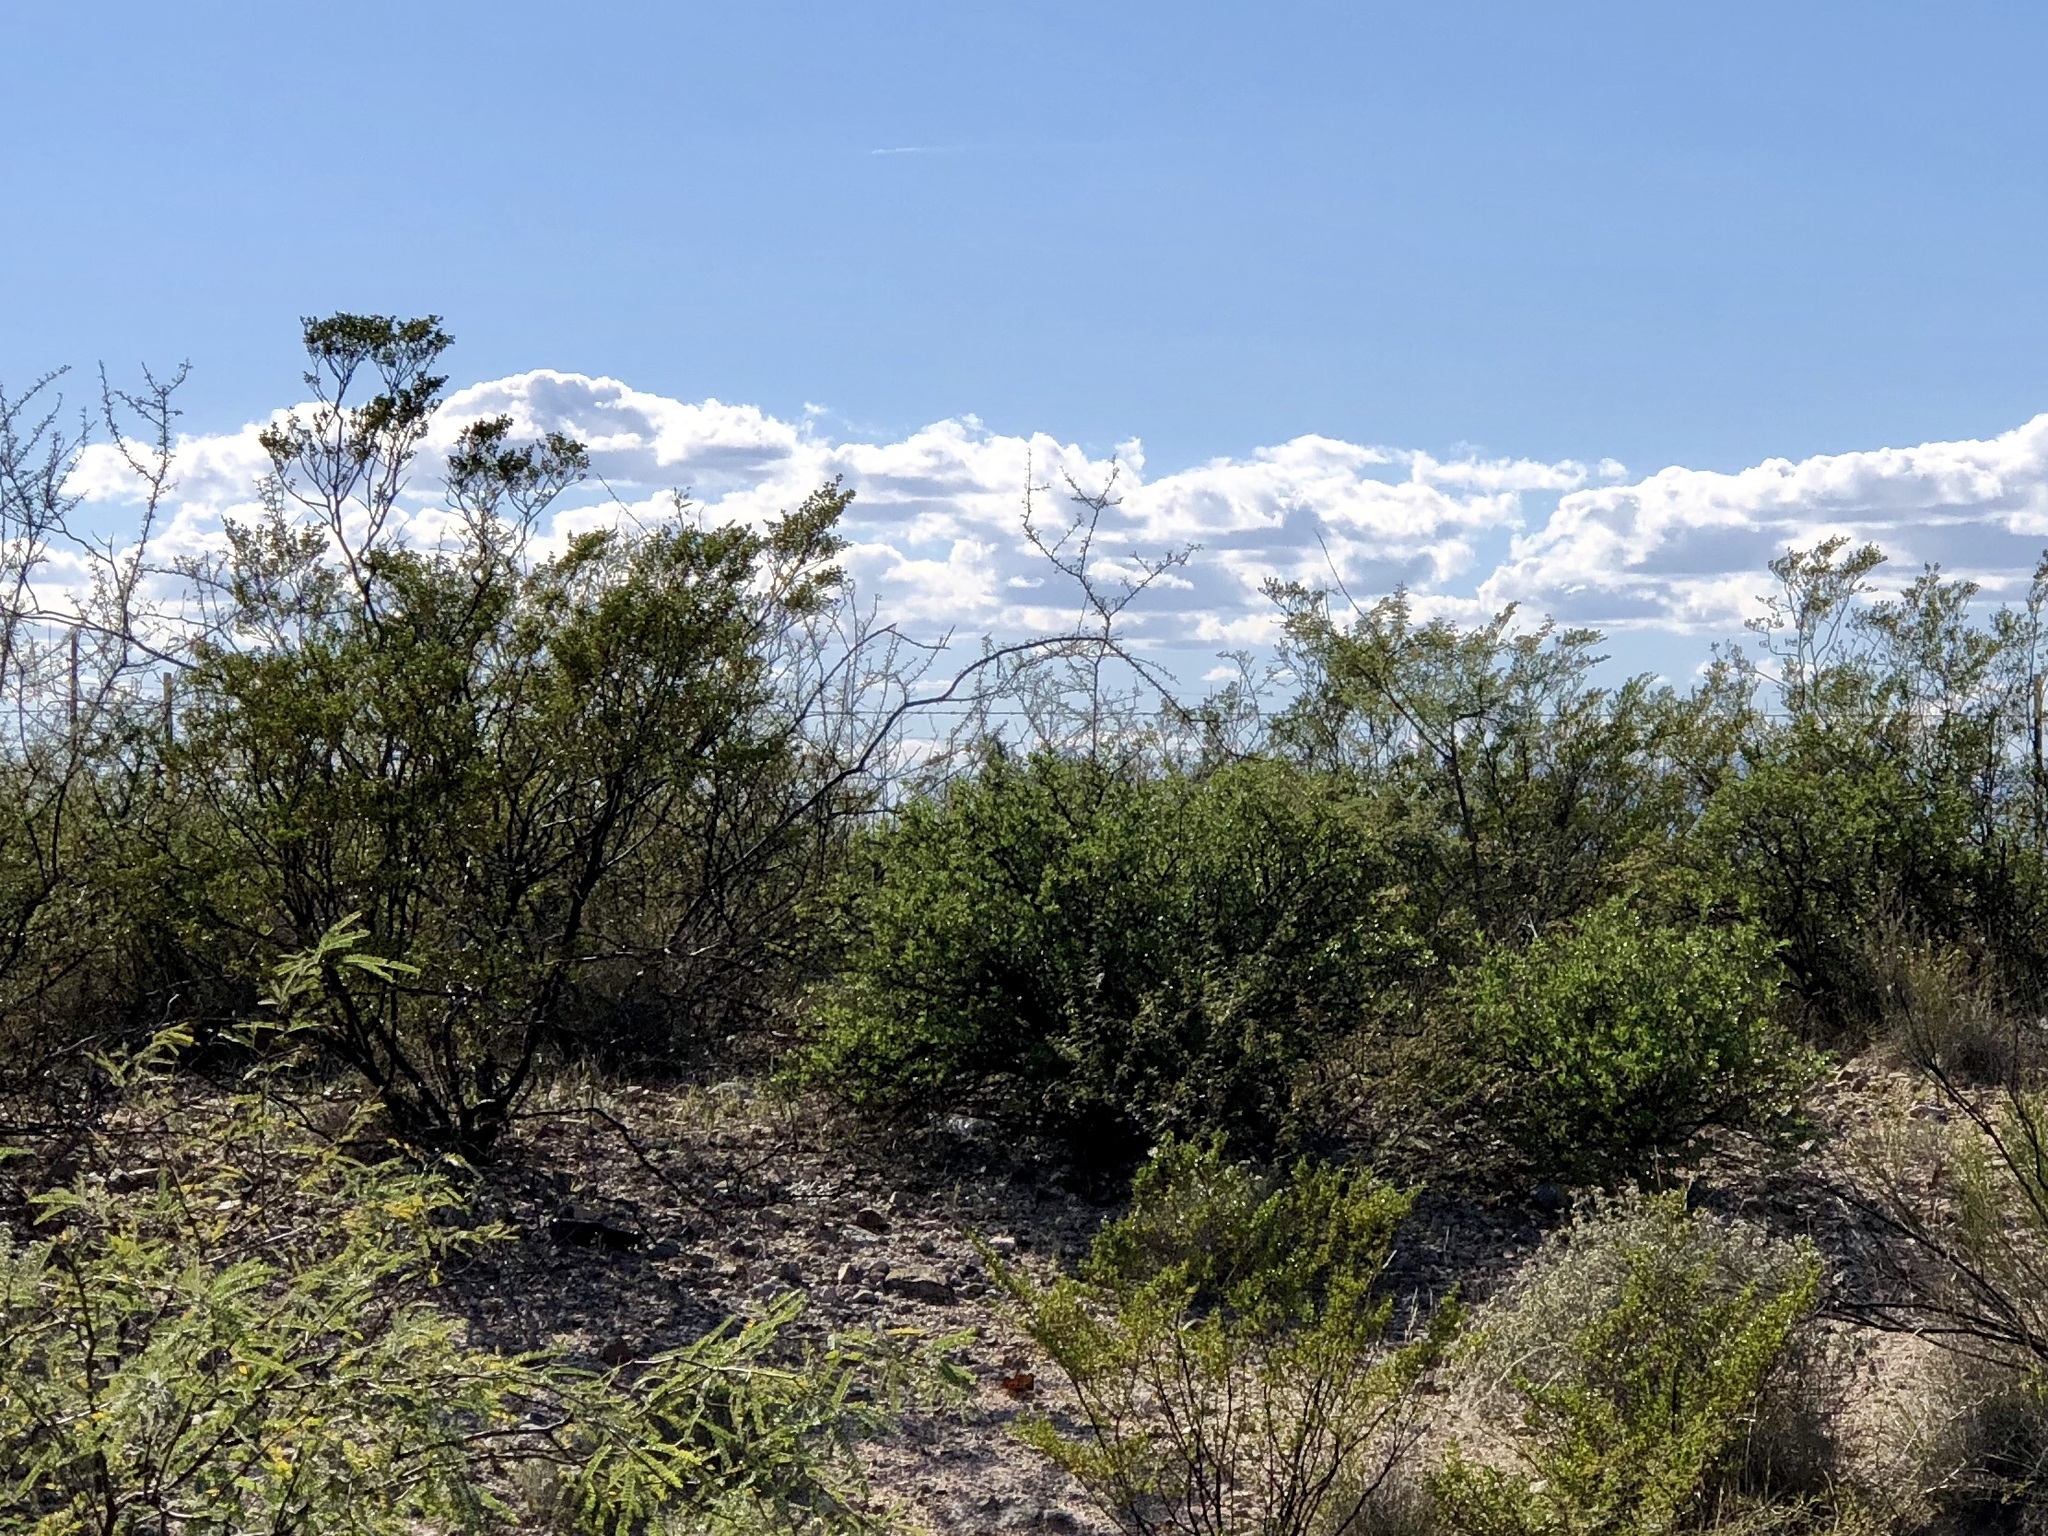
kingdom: Plantae
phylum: Tracheophyta
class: Magnoliopsida
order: Zygophyllales
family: Zygophyllaceae
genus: Larrea
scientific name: Larrea tridentata
